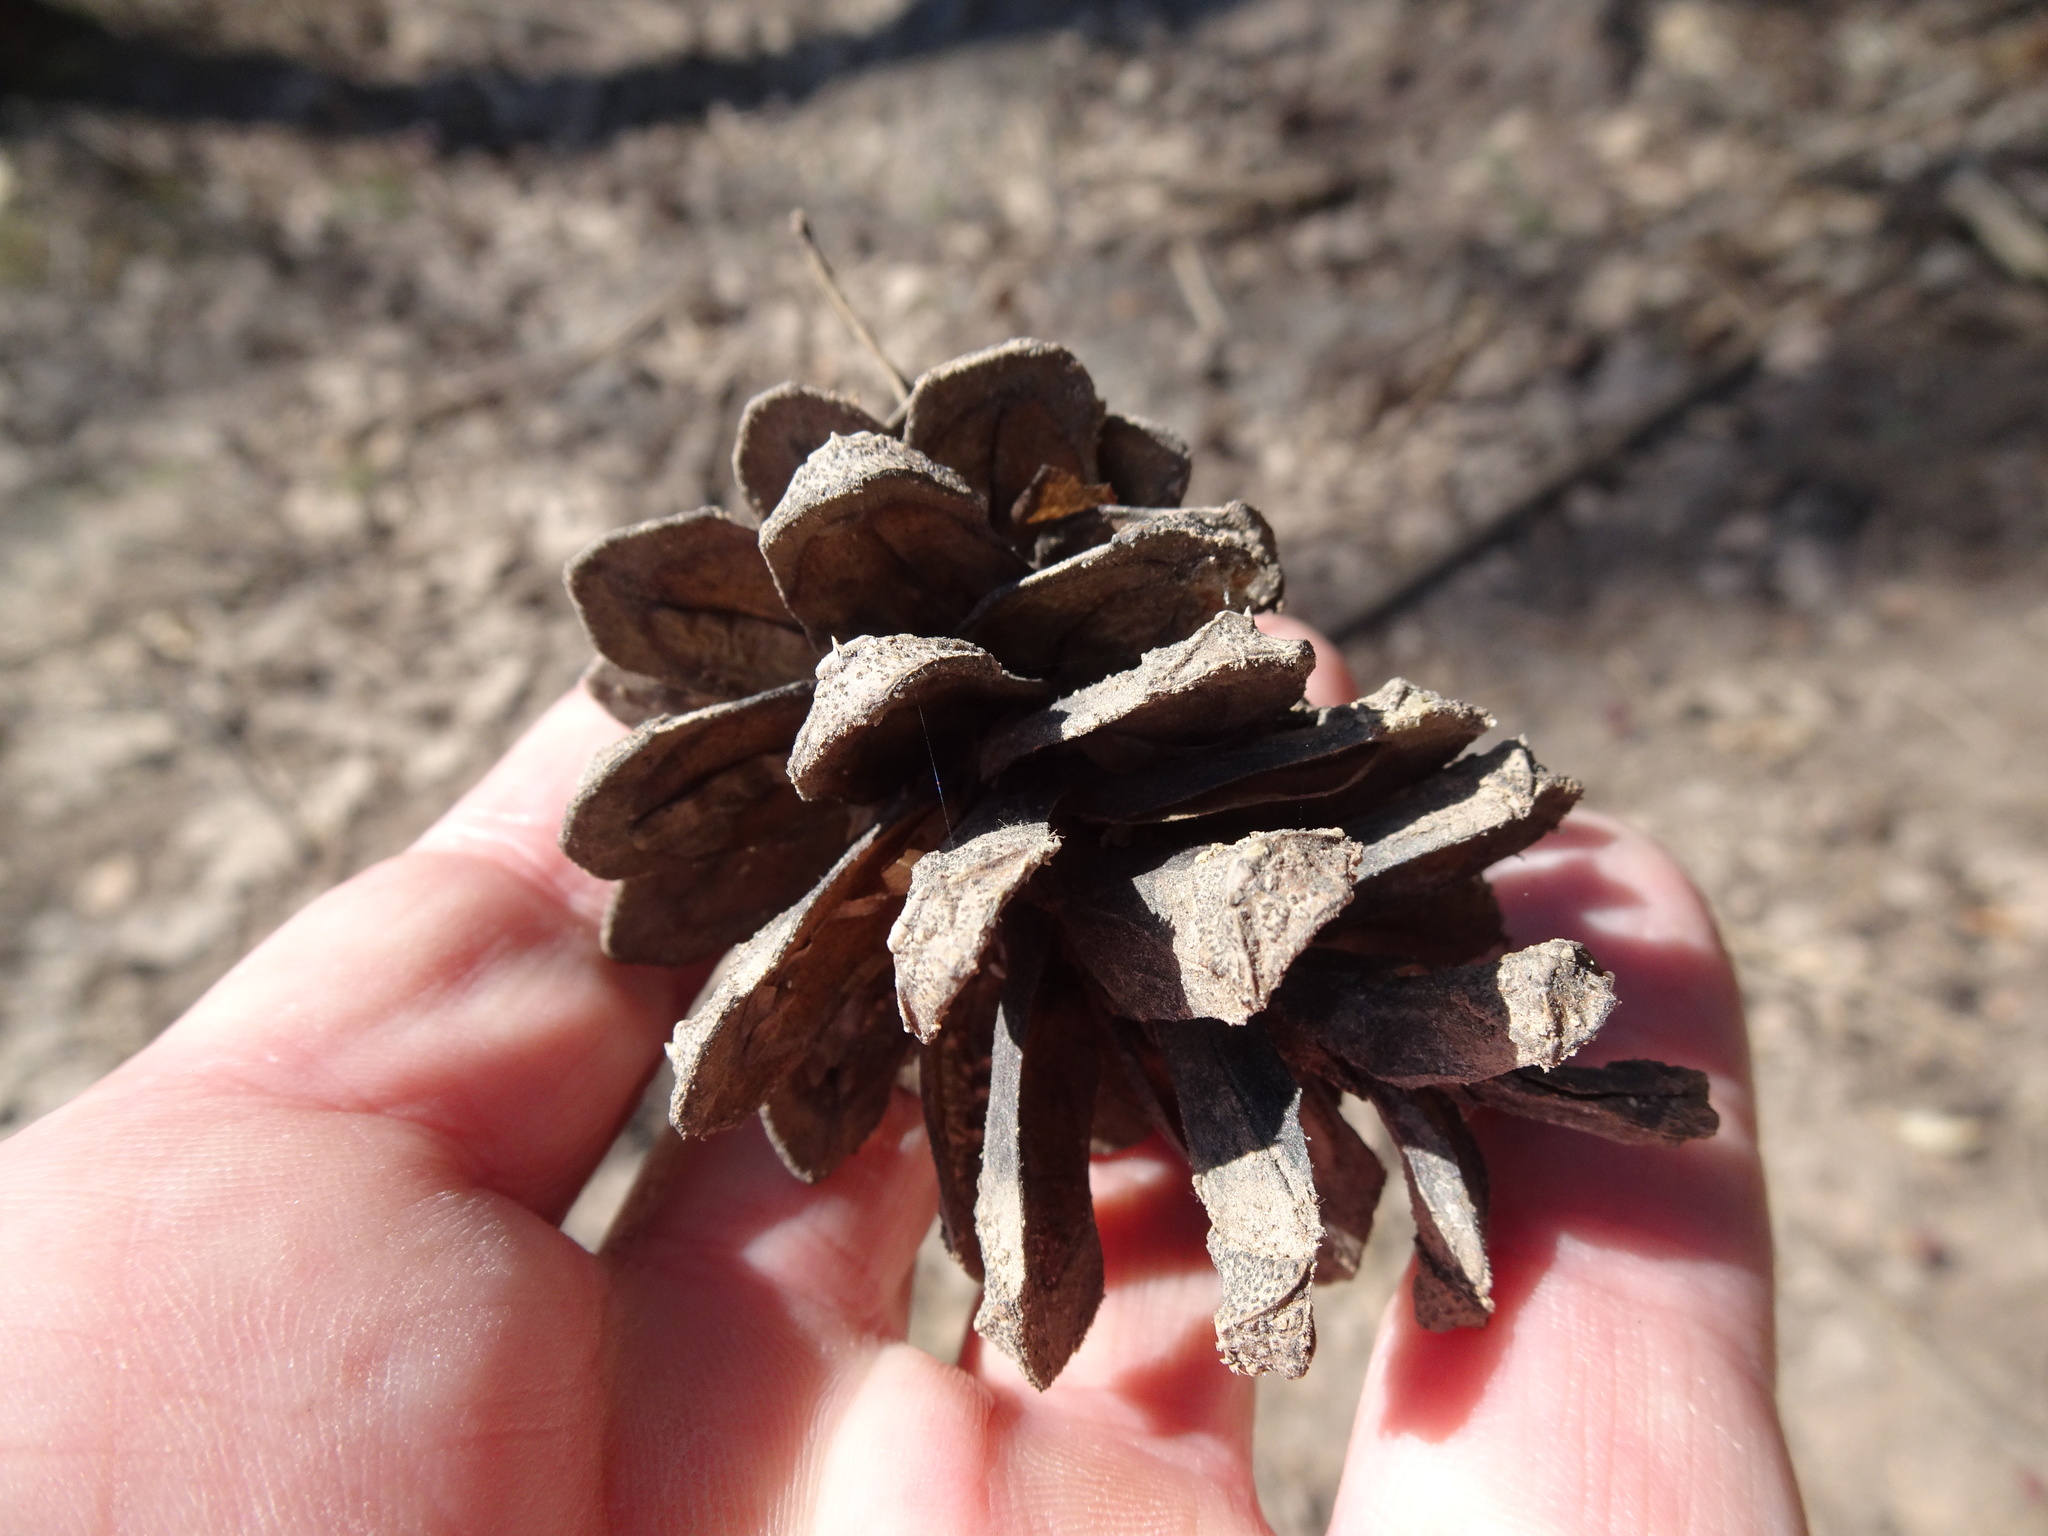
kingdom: Plantae
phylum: Tracheophyta
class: Pinopsida
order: Pinales
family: Pinaceae
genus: Pinus
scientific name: Pinus sylvestris
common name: Scots pine
